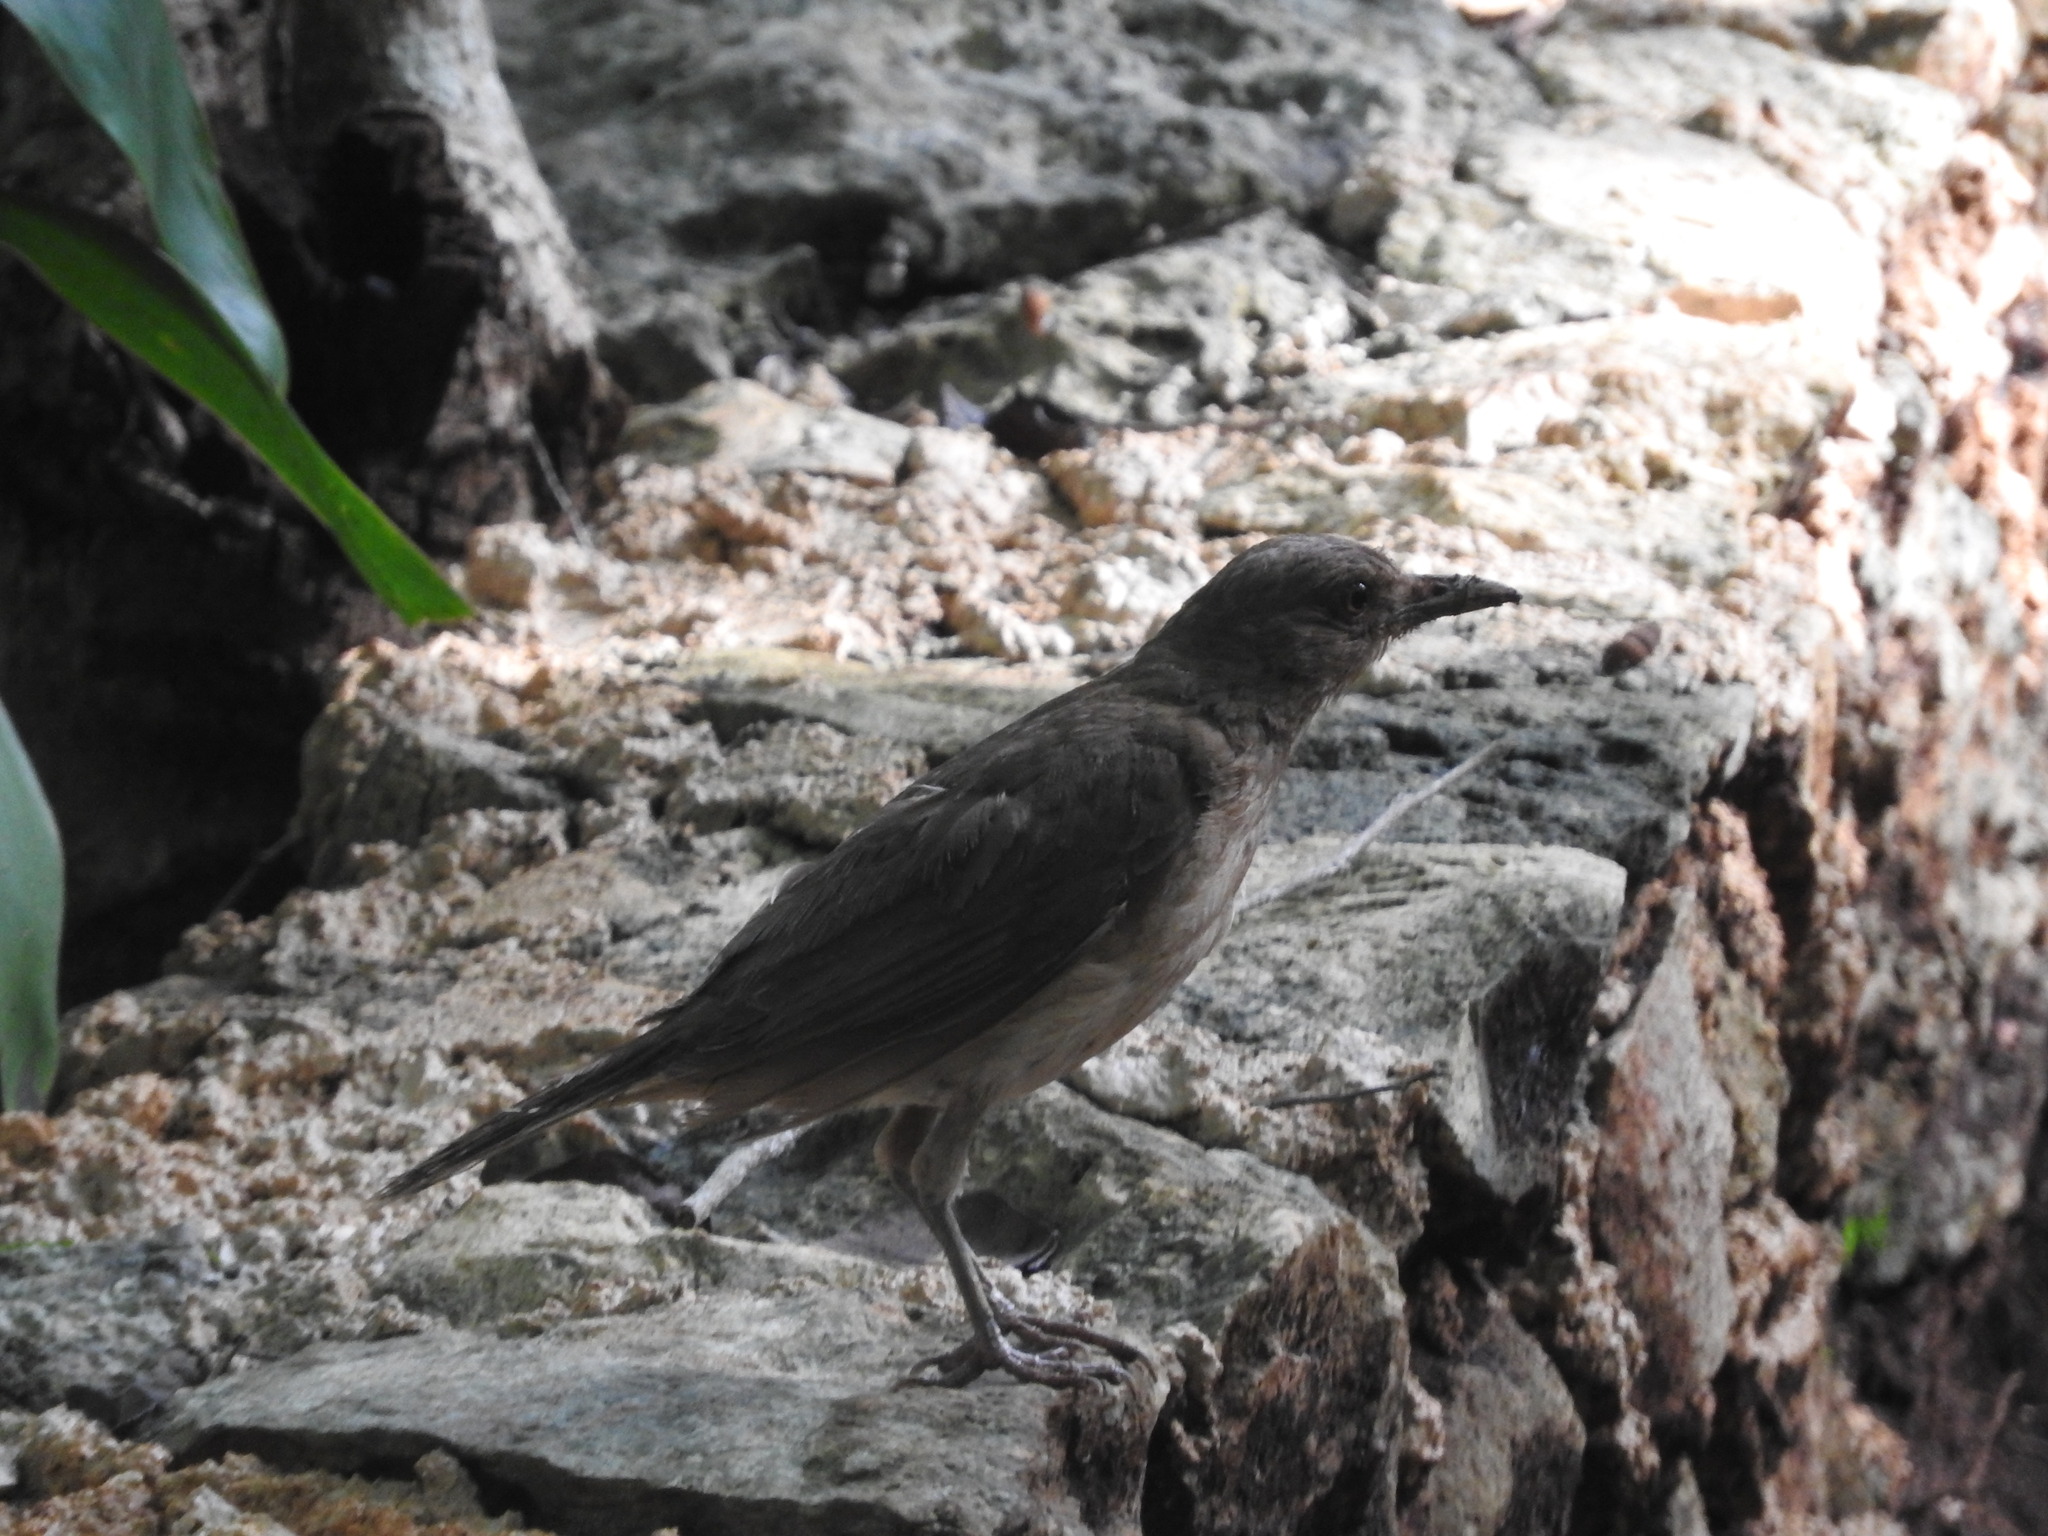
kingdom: Animalia
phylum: Chordata
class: Aves
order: Passeriformes
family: Turdidae
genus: Turdus
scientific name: Turdus grayi
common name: Clay-colored thrush
